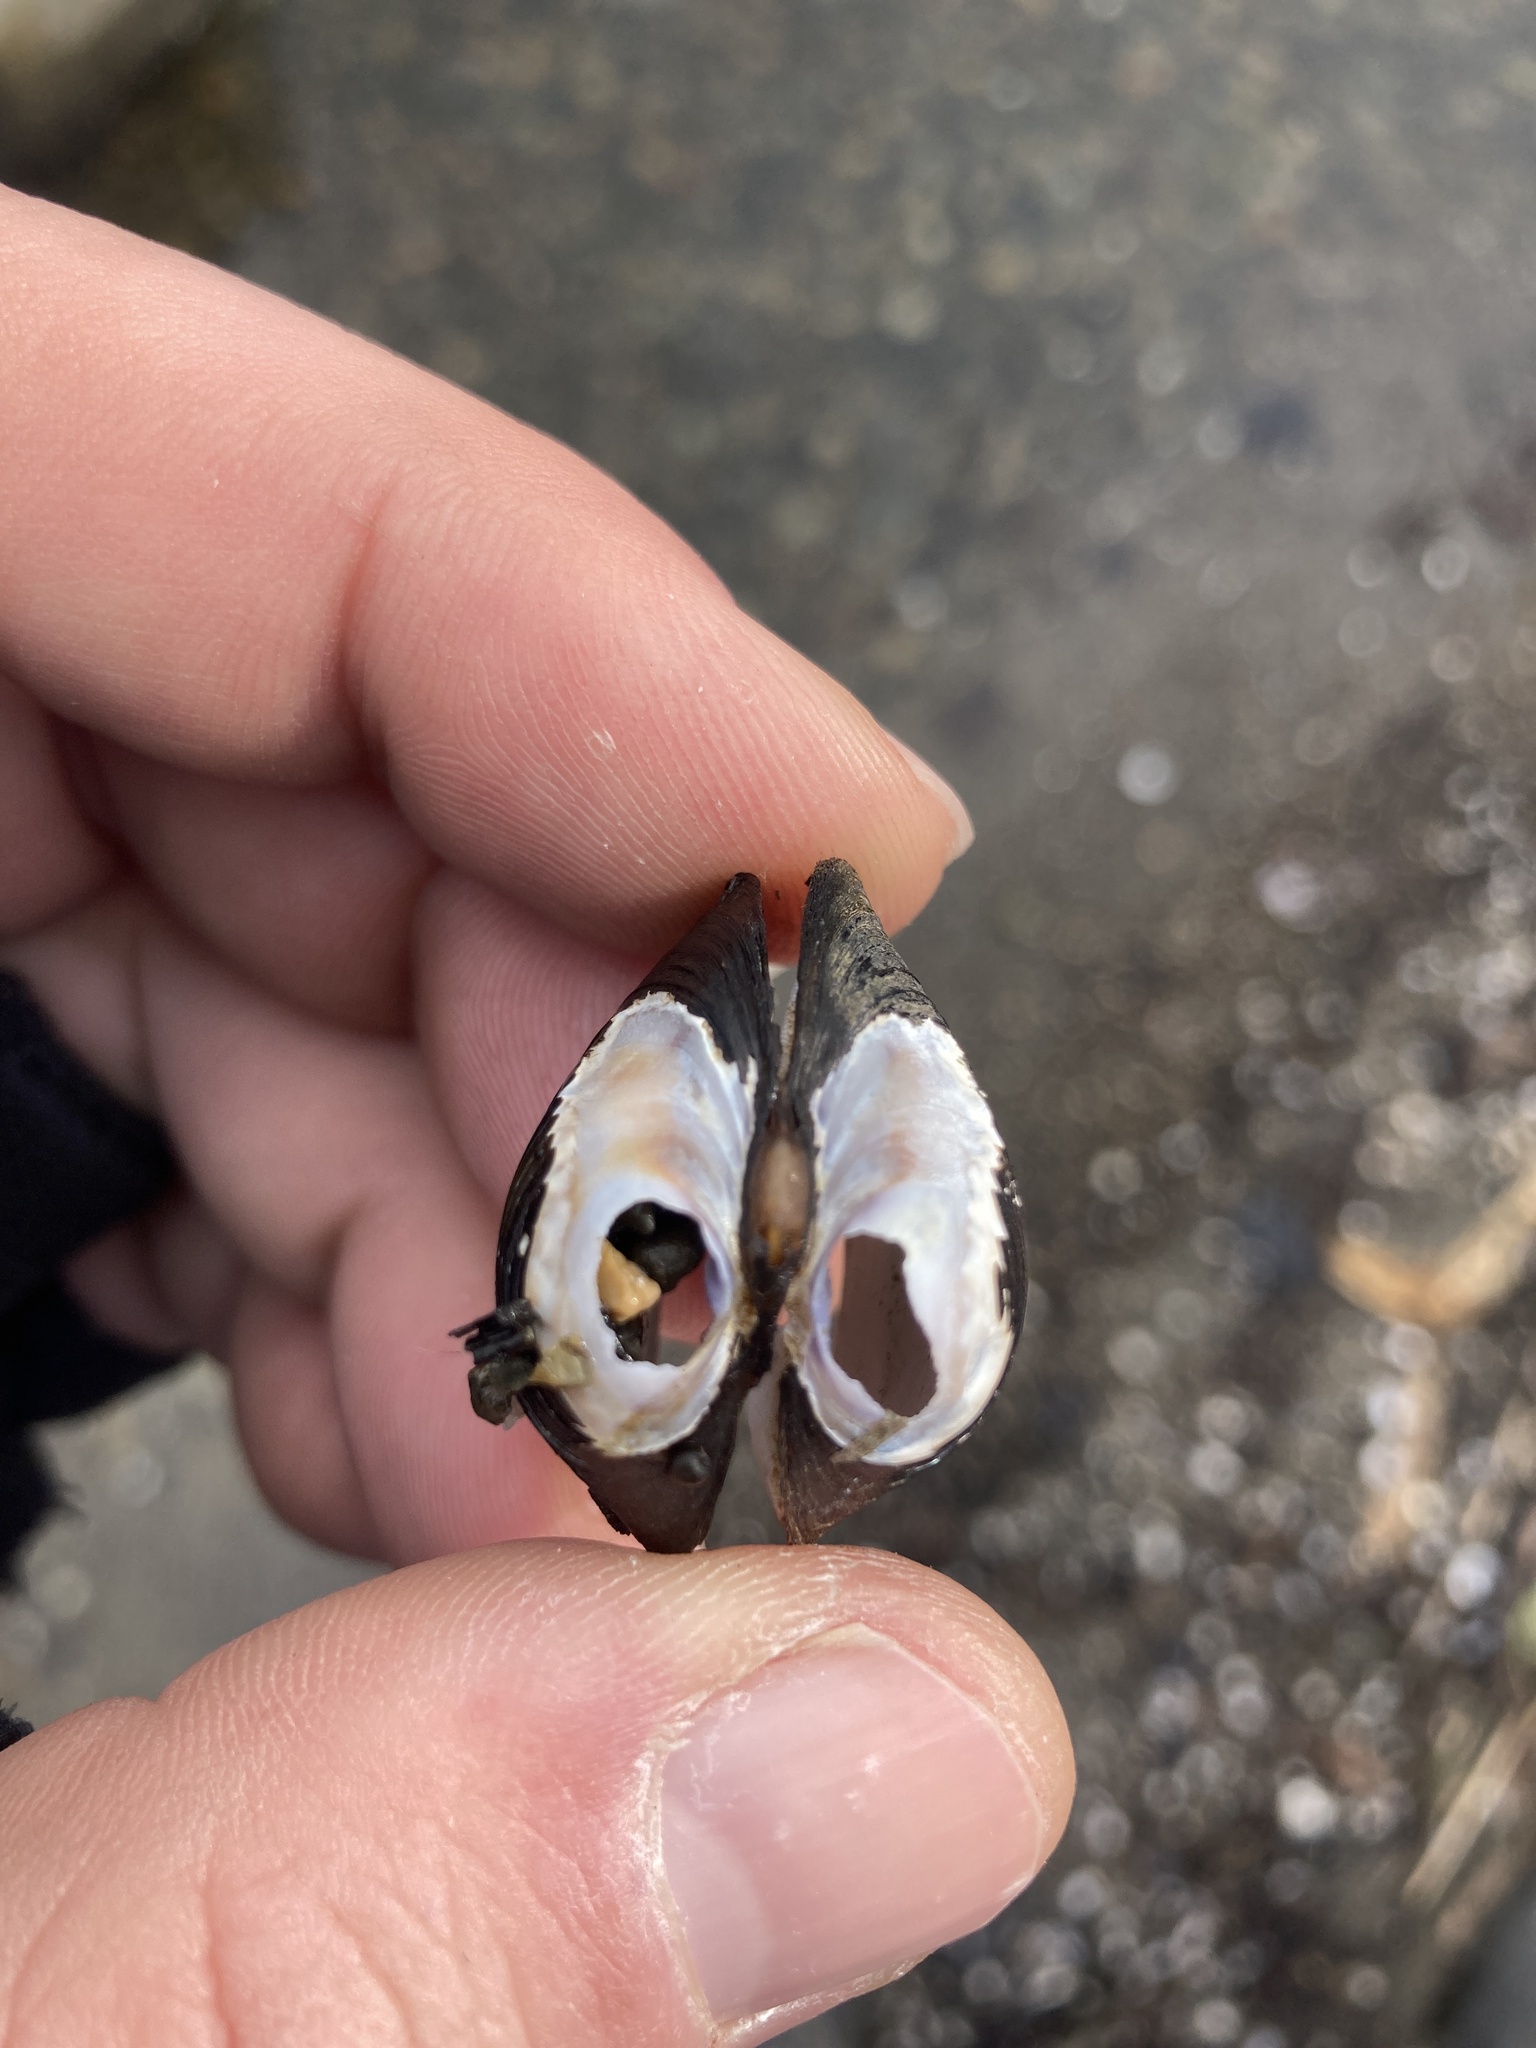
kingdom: Animalia
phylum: Mollusca
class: Bivalvia
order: Venerida
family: Cyrenidae
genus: Corbicula
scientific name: Corbicula fluminea
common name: Asian clam
